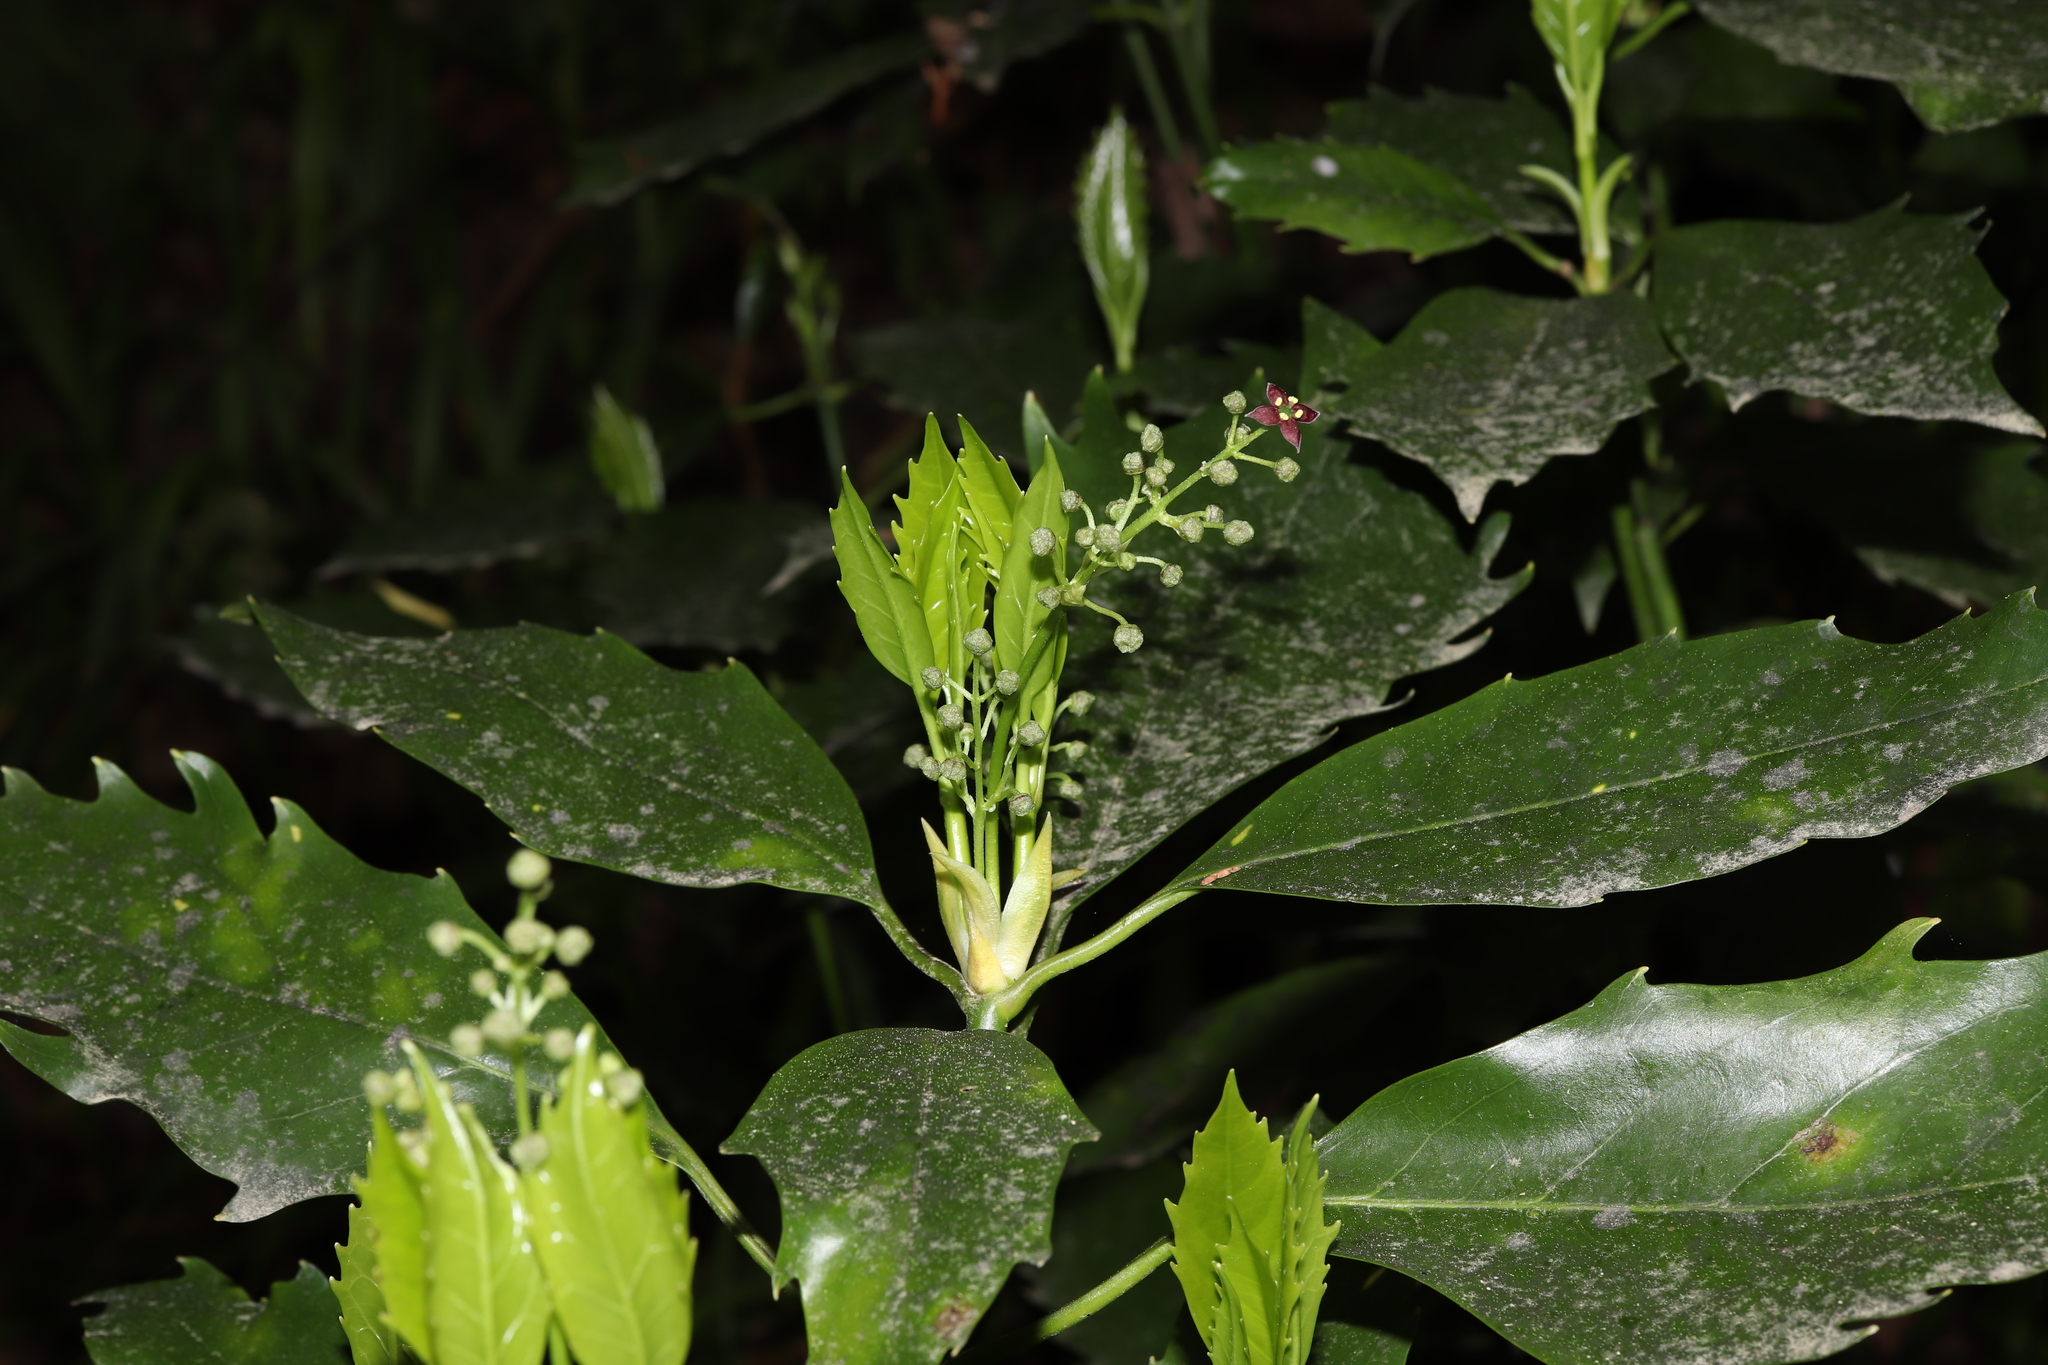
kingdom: Plantae
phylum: Tracheophyta
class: Magnoliopsida
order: Garryales
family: Garryaceae
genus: Aucuba
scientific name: Aucuba japonica
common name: Spotted-laurel
